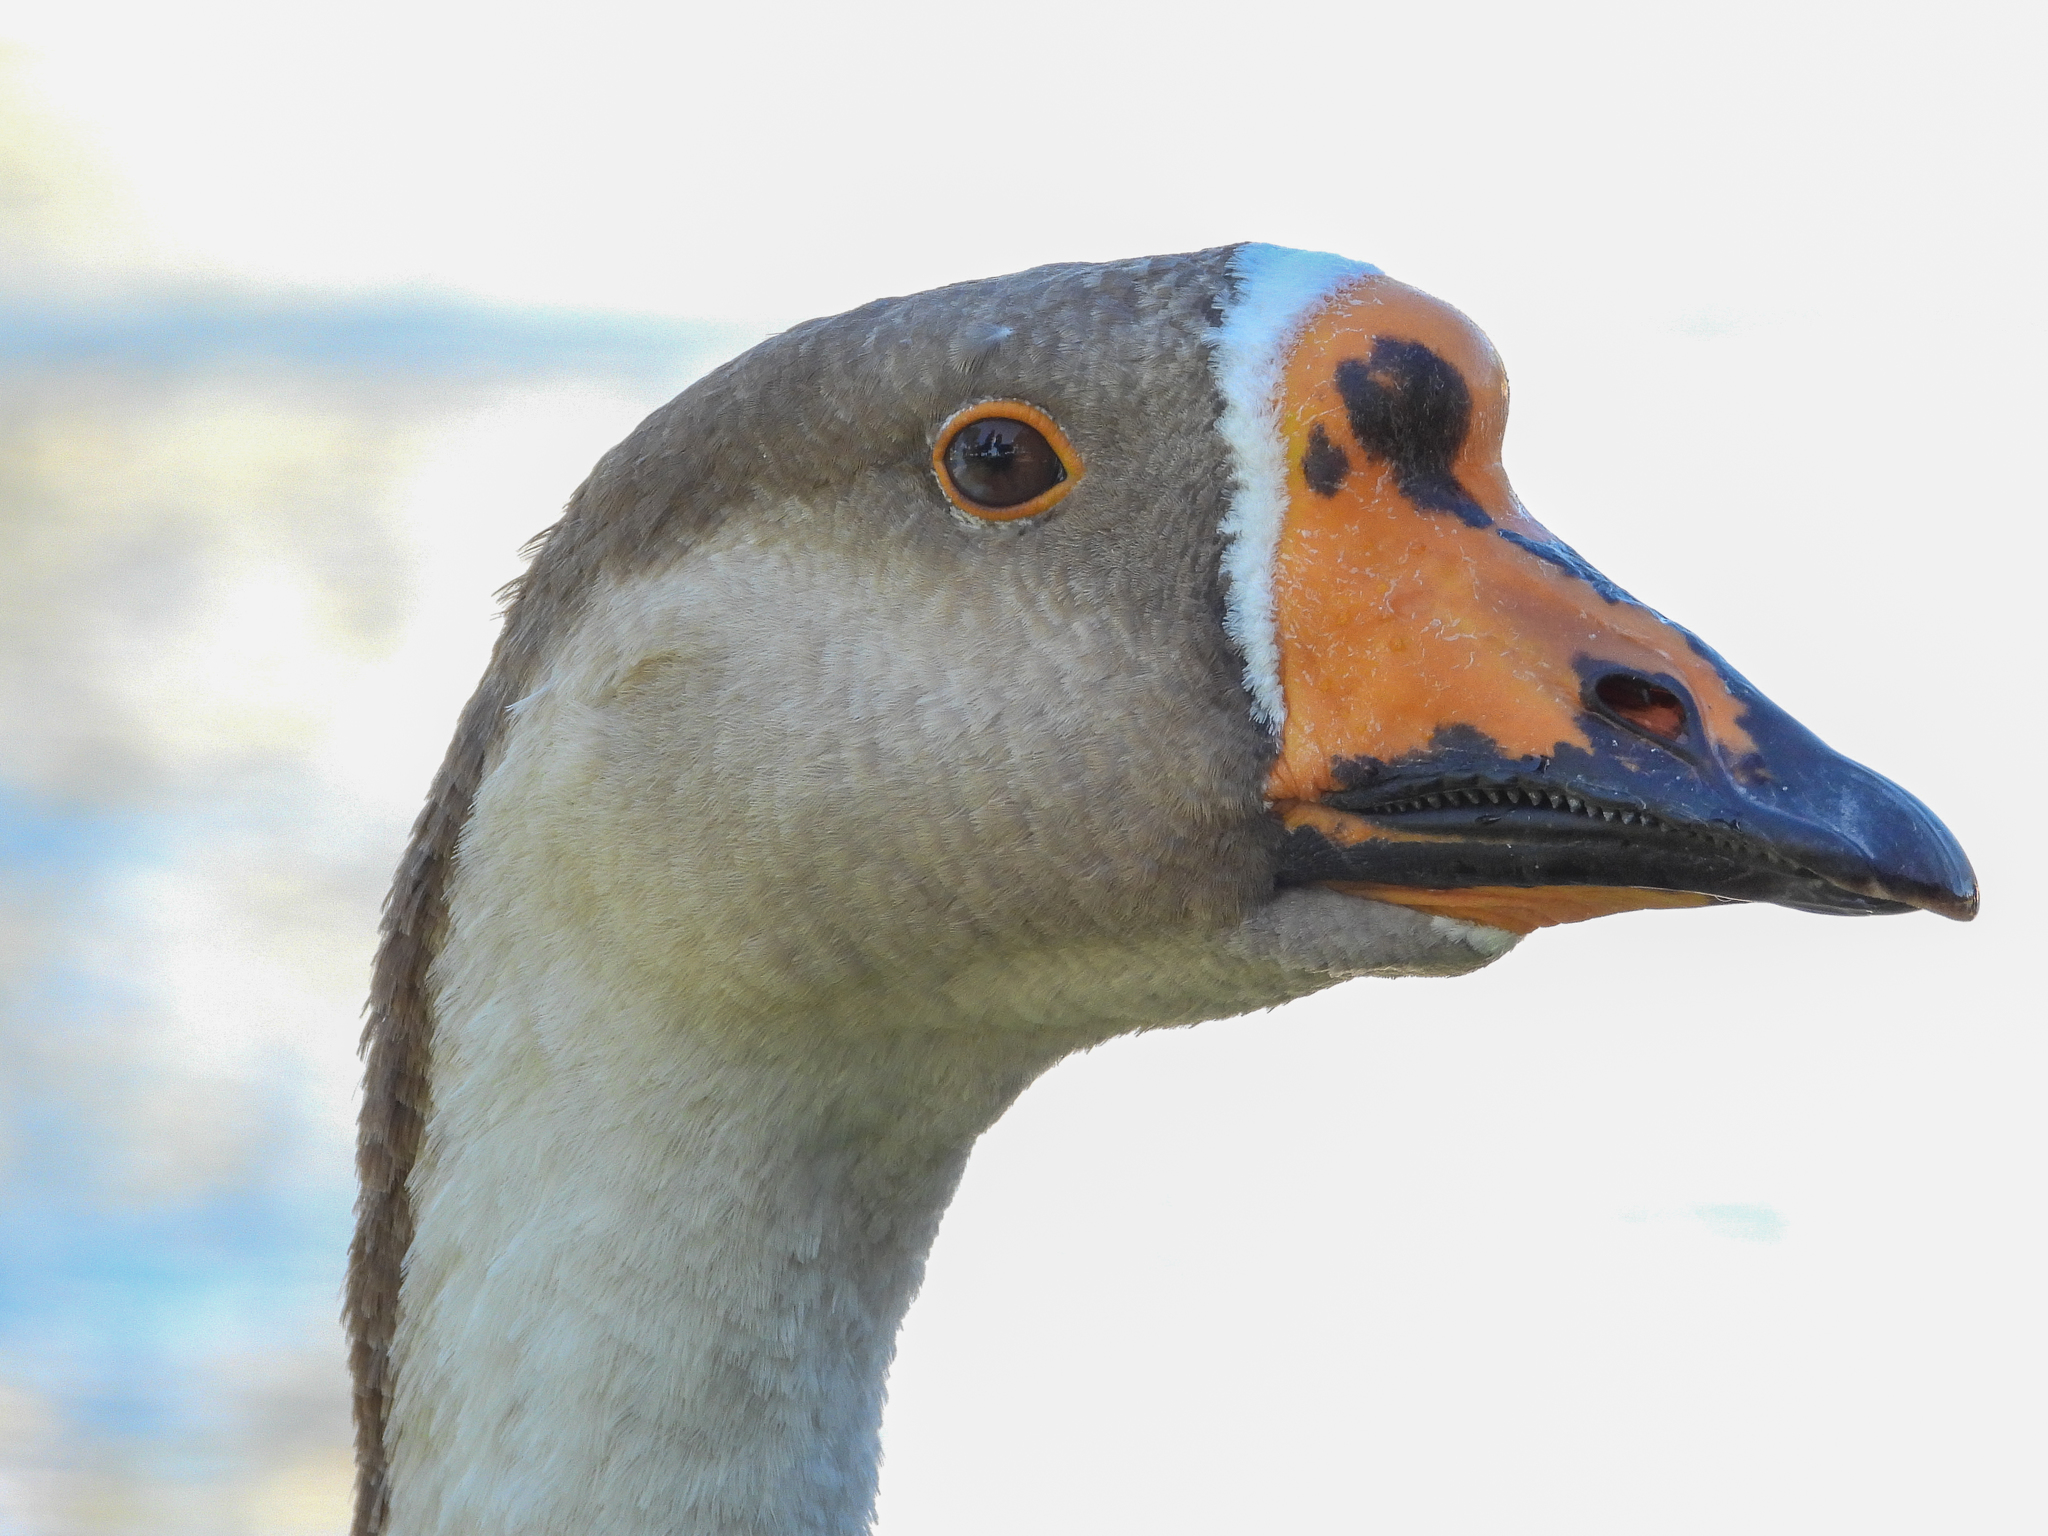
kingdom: Animalia
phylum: Chordata
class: Aves
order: Anseriformes
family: Anatidae
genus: Anser
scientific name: Anser
